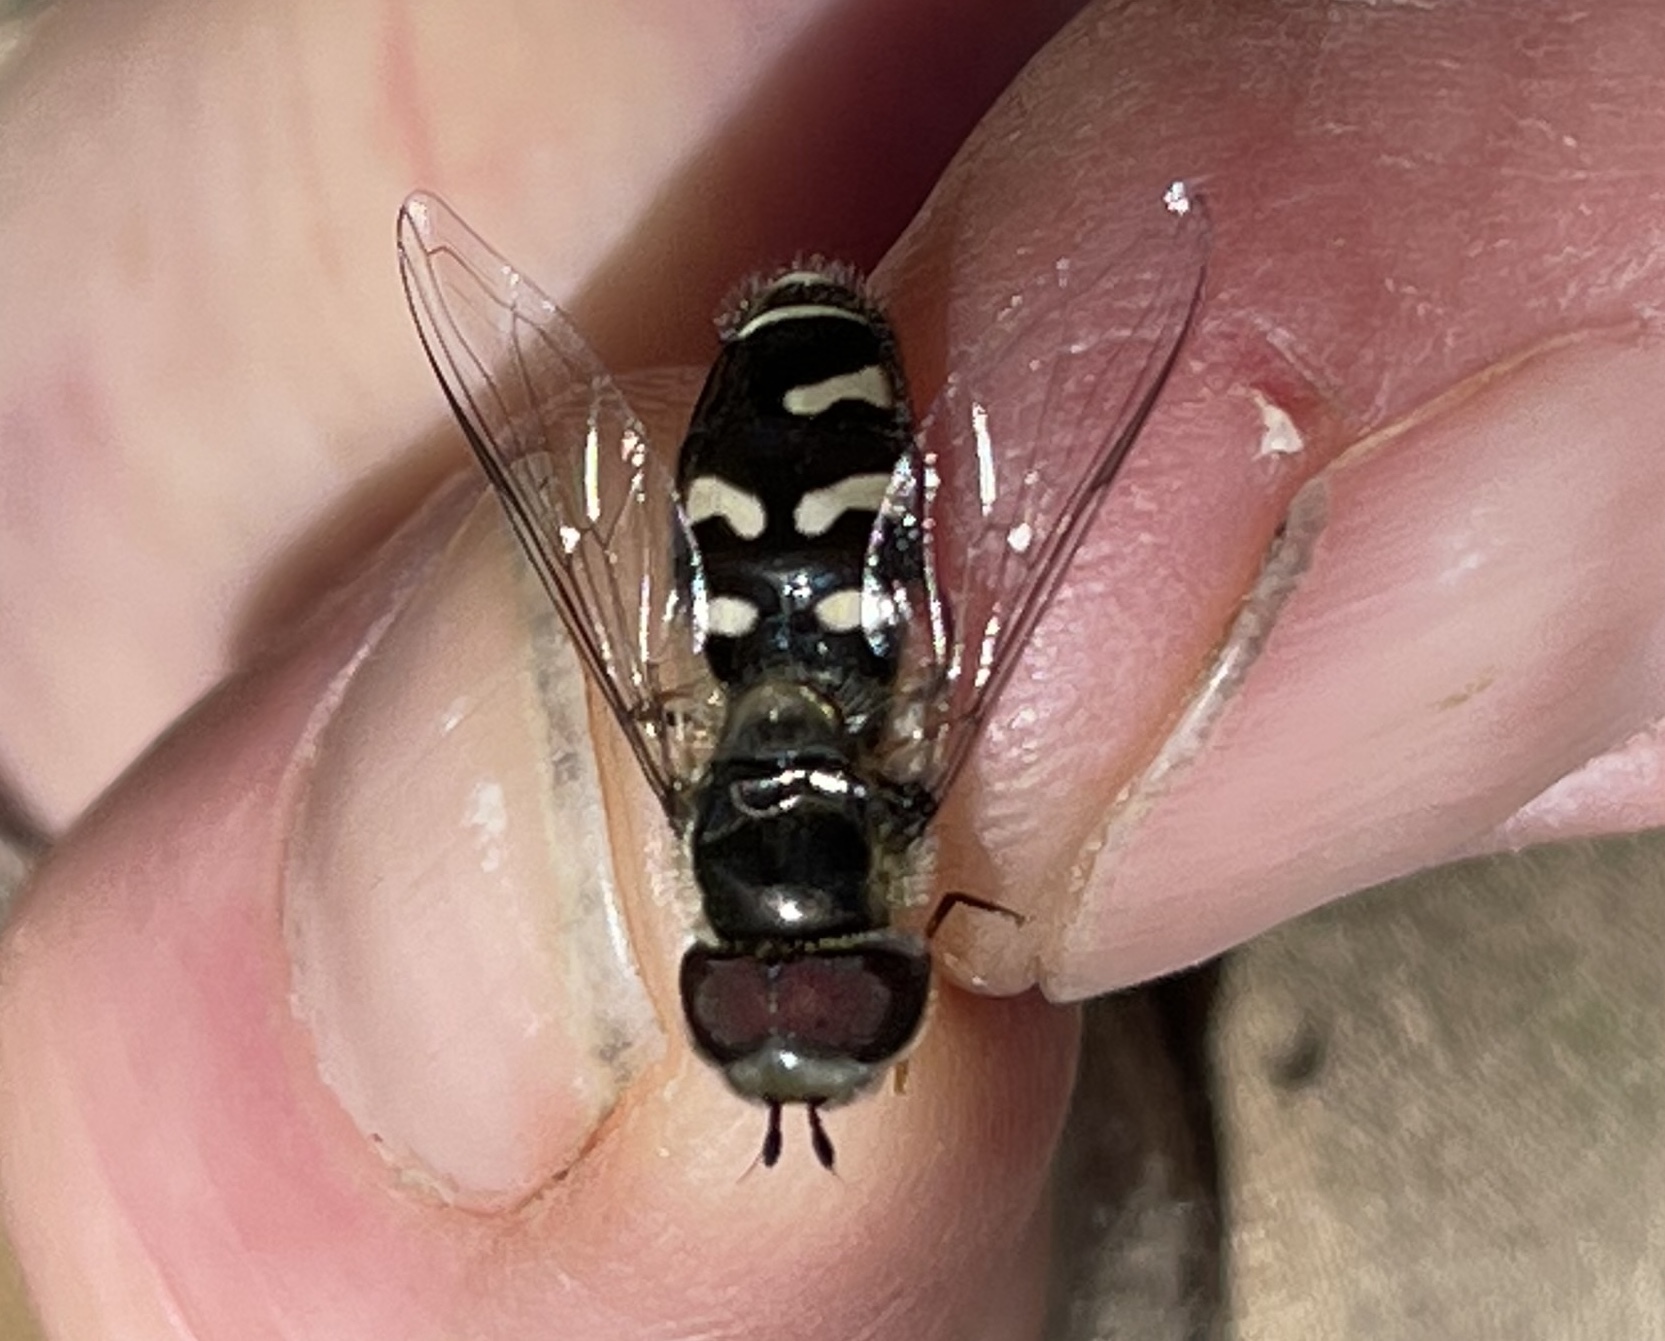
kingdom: Animalia
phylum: Arthropoda
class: Insecta
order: Diptera
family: Syrphidae
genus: Scaeva
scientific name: Scaeva affinis
